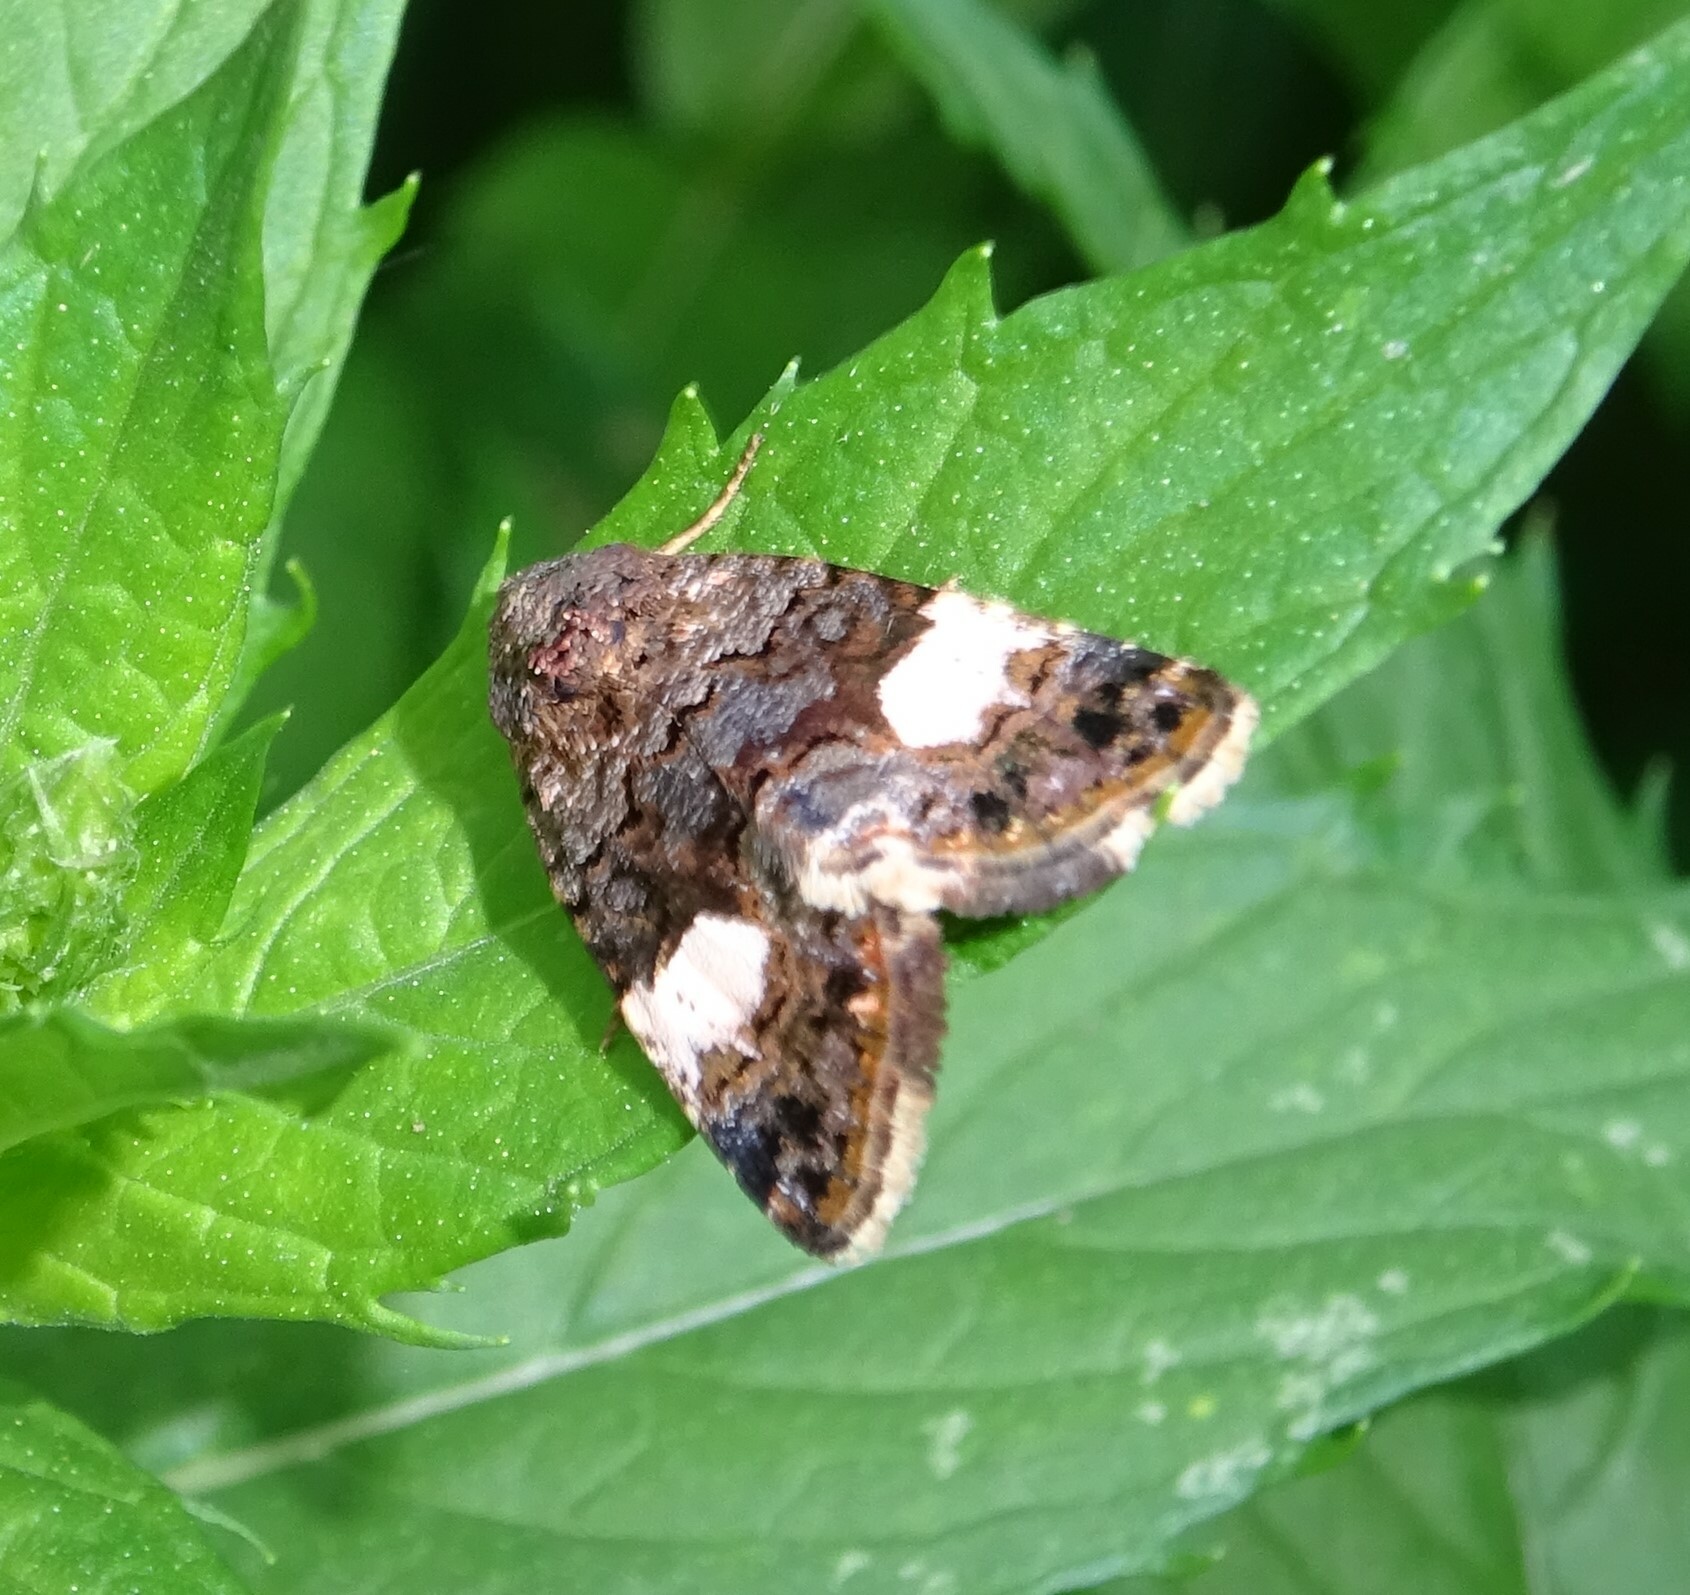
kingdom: Animalia
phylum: Arthropoda
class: Insecta
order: Lepidoptera
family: Erebidae
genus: Tyta
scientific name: Tyta luctuosa
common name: Four-spotted
